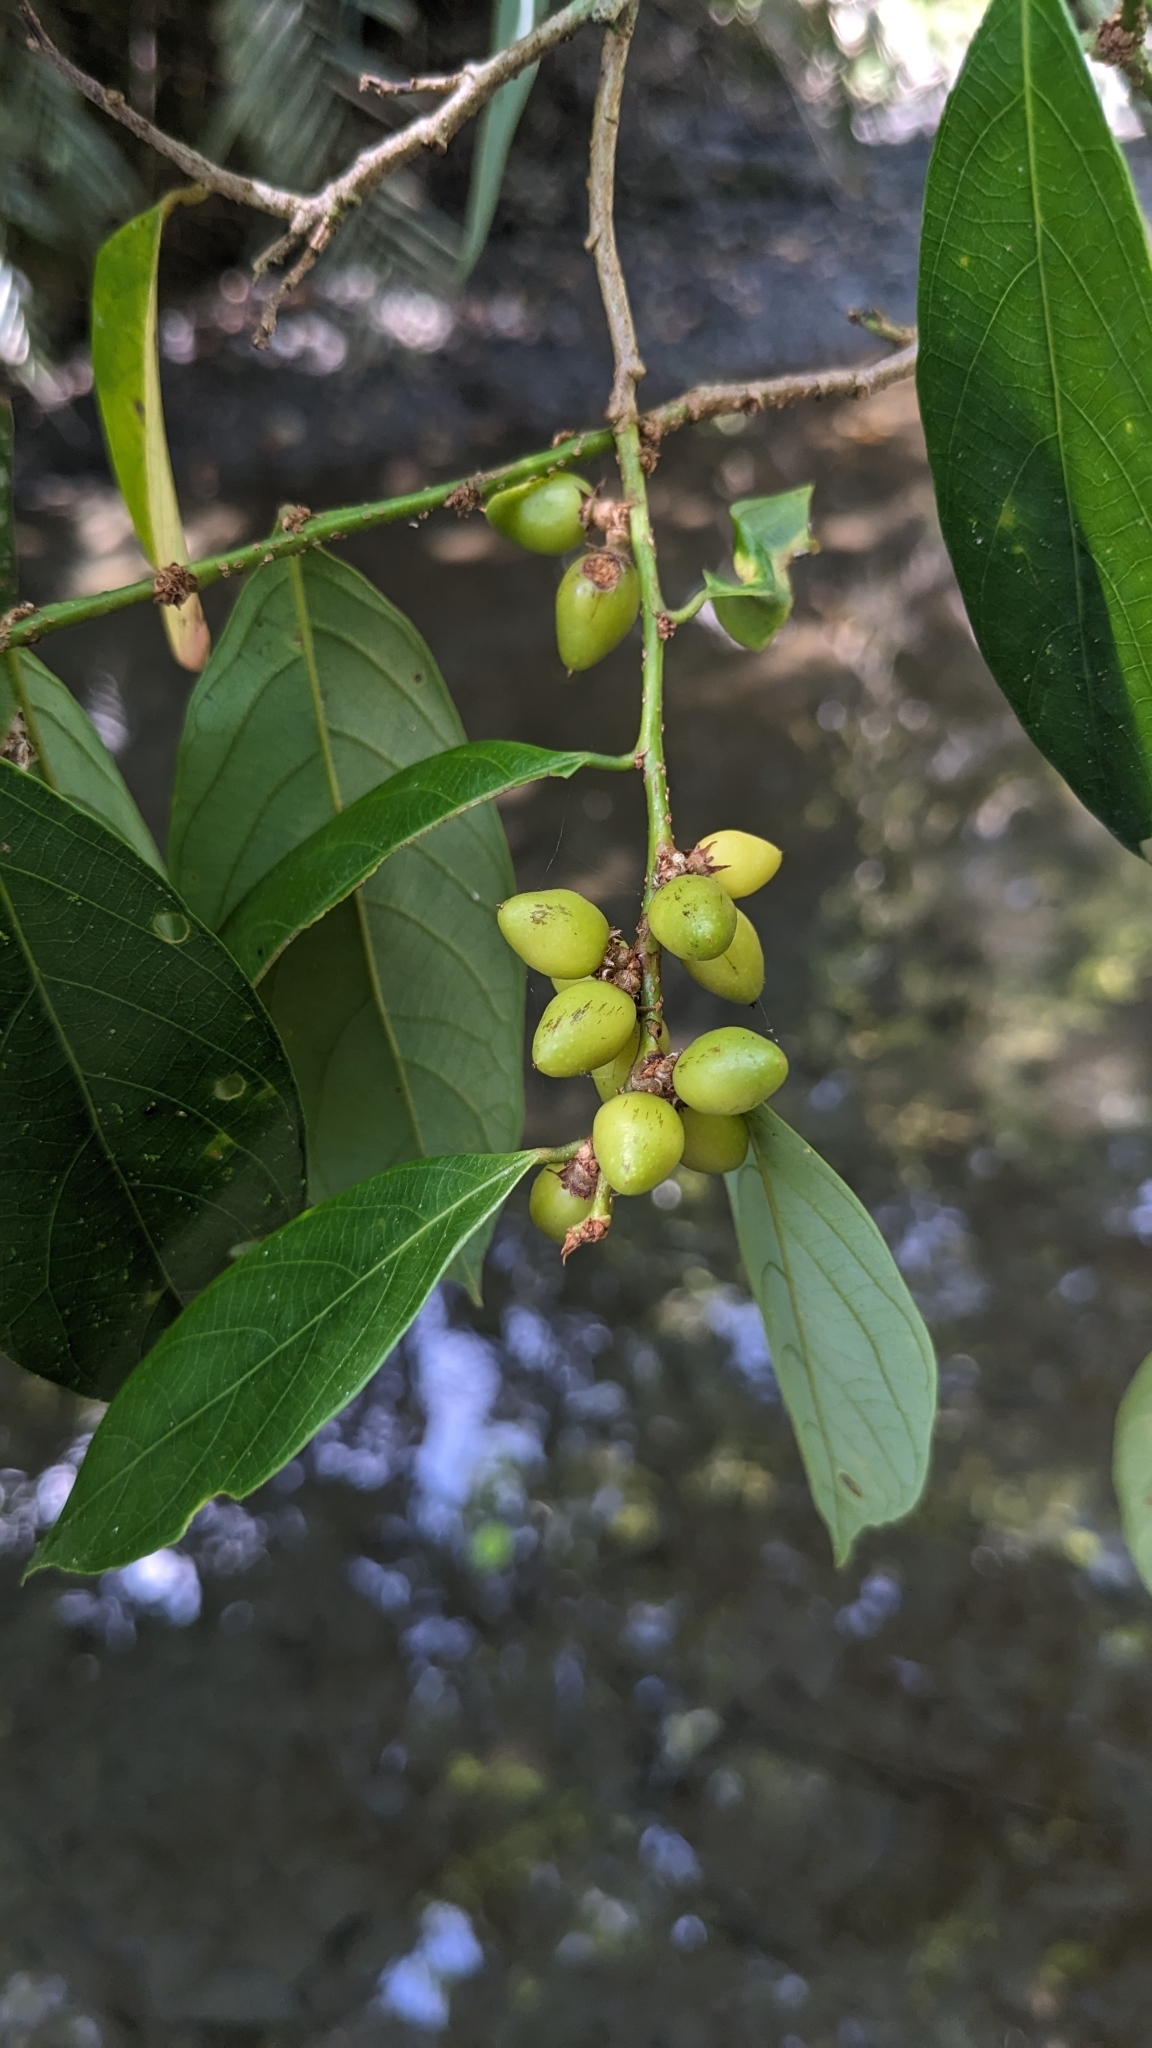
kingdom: Plantae
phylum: Tracheophyta
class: Magnoliopsida
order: Malpighiales
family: Phyllanthaceae
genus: Bridelia
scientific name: Bridelia balansae
